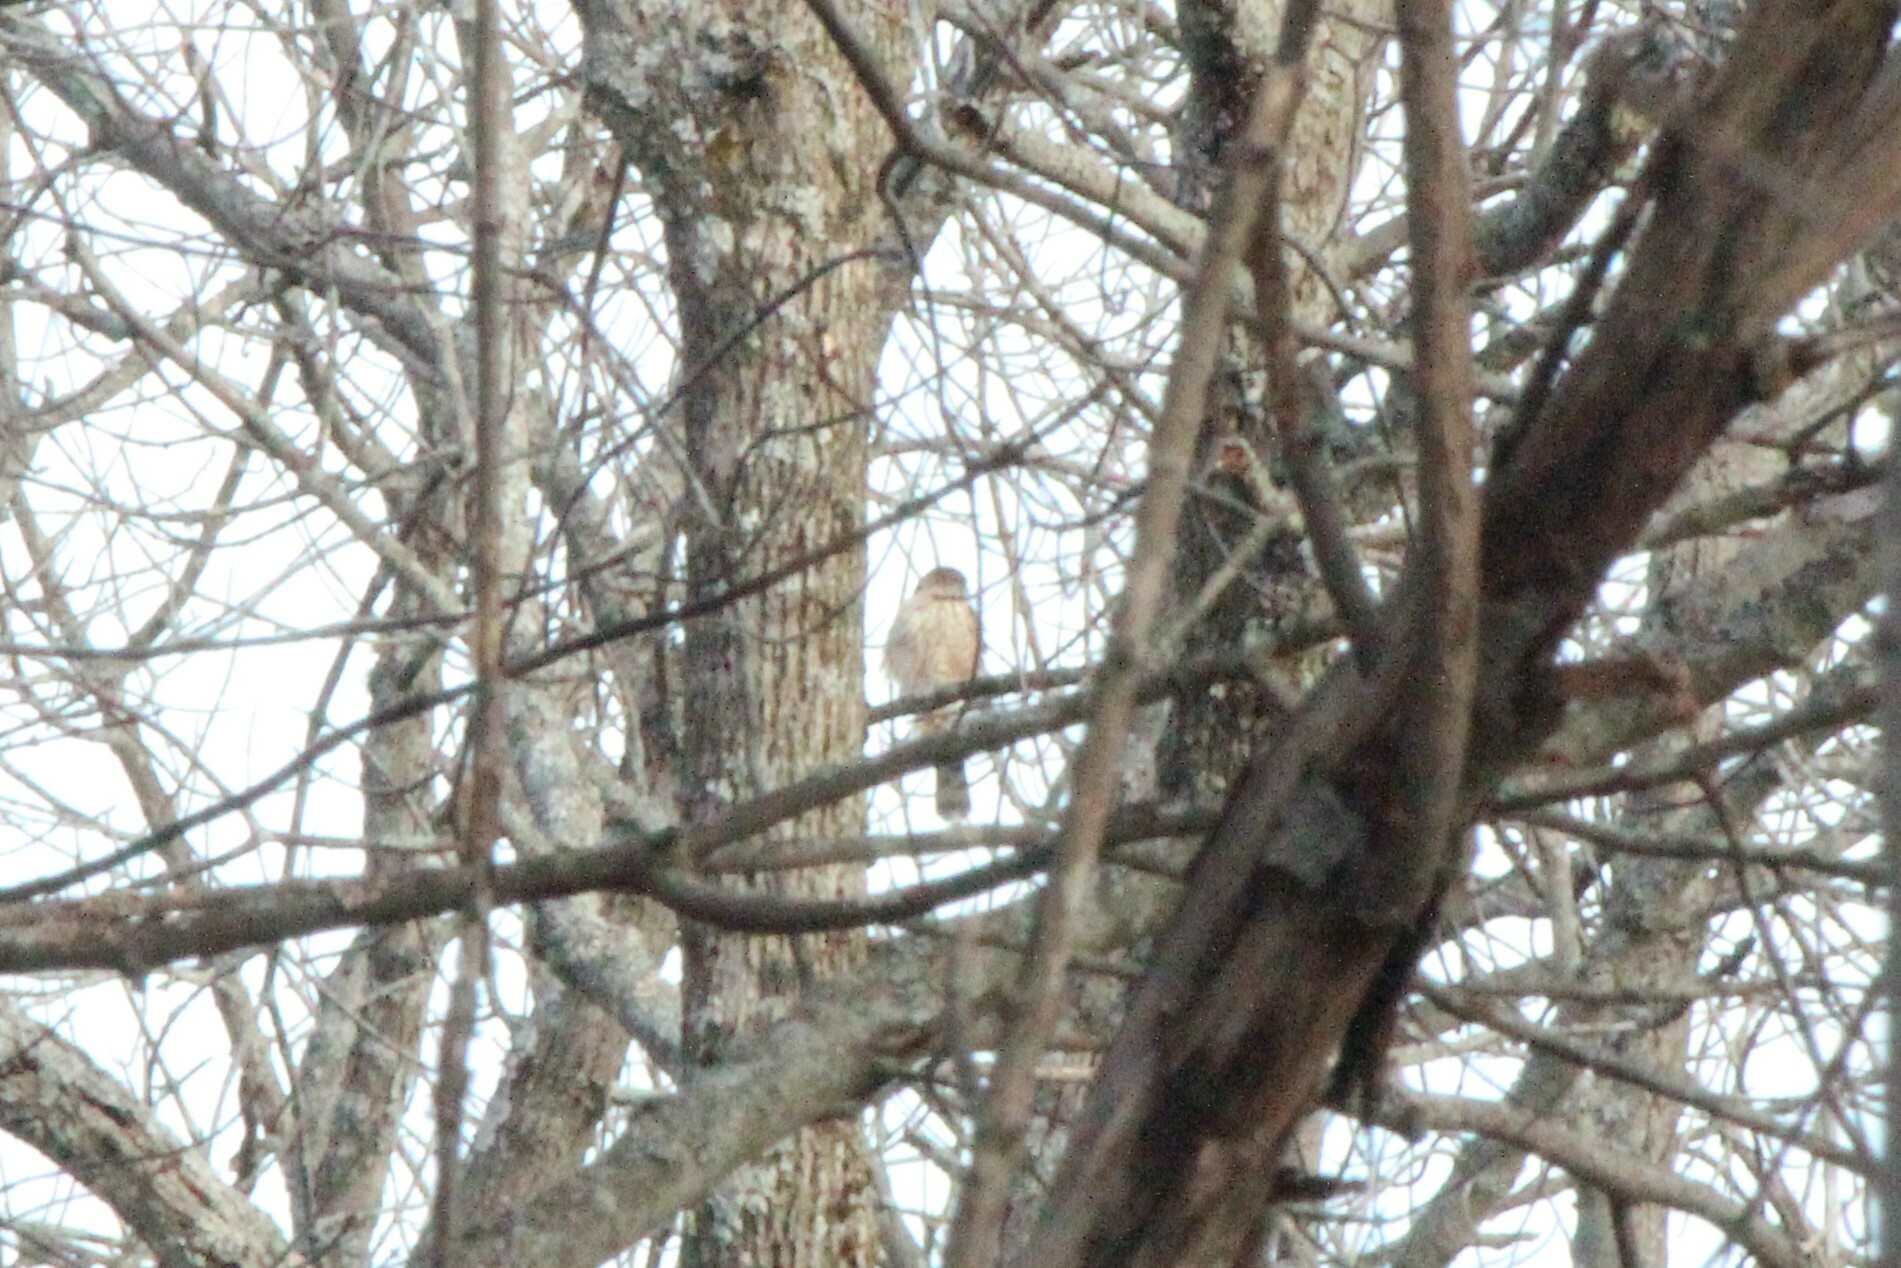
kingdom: Animalia
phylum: Chordata
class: Aves
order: Accipitriformes
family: Accipitridae
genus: Accipiter
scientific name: Accipiter striatus
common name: Sharp-shinned hawk
